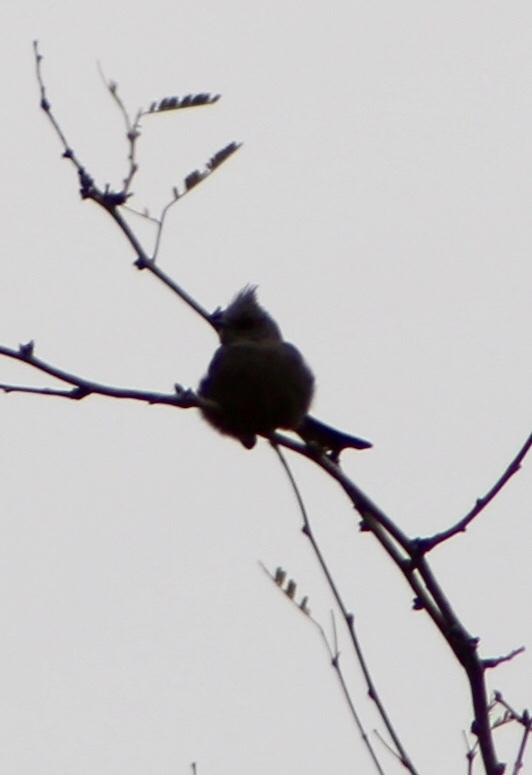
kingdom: Animalia
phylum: Chordata
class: Aves
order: Passeriformes
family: Ptilogonatidae
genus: Phainopepla
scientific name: Phainopepla nitens
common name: Phainopepla
